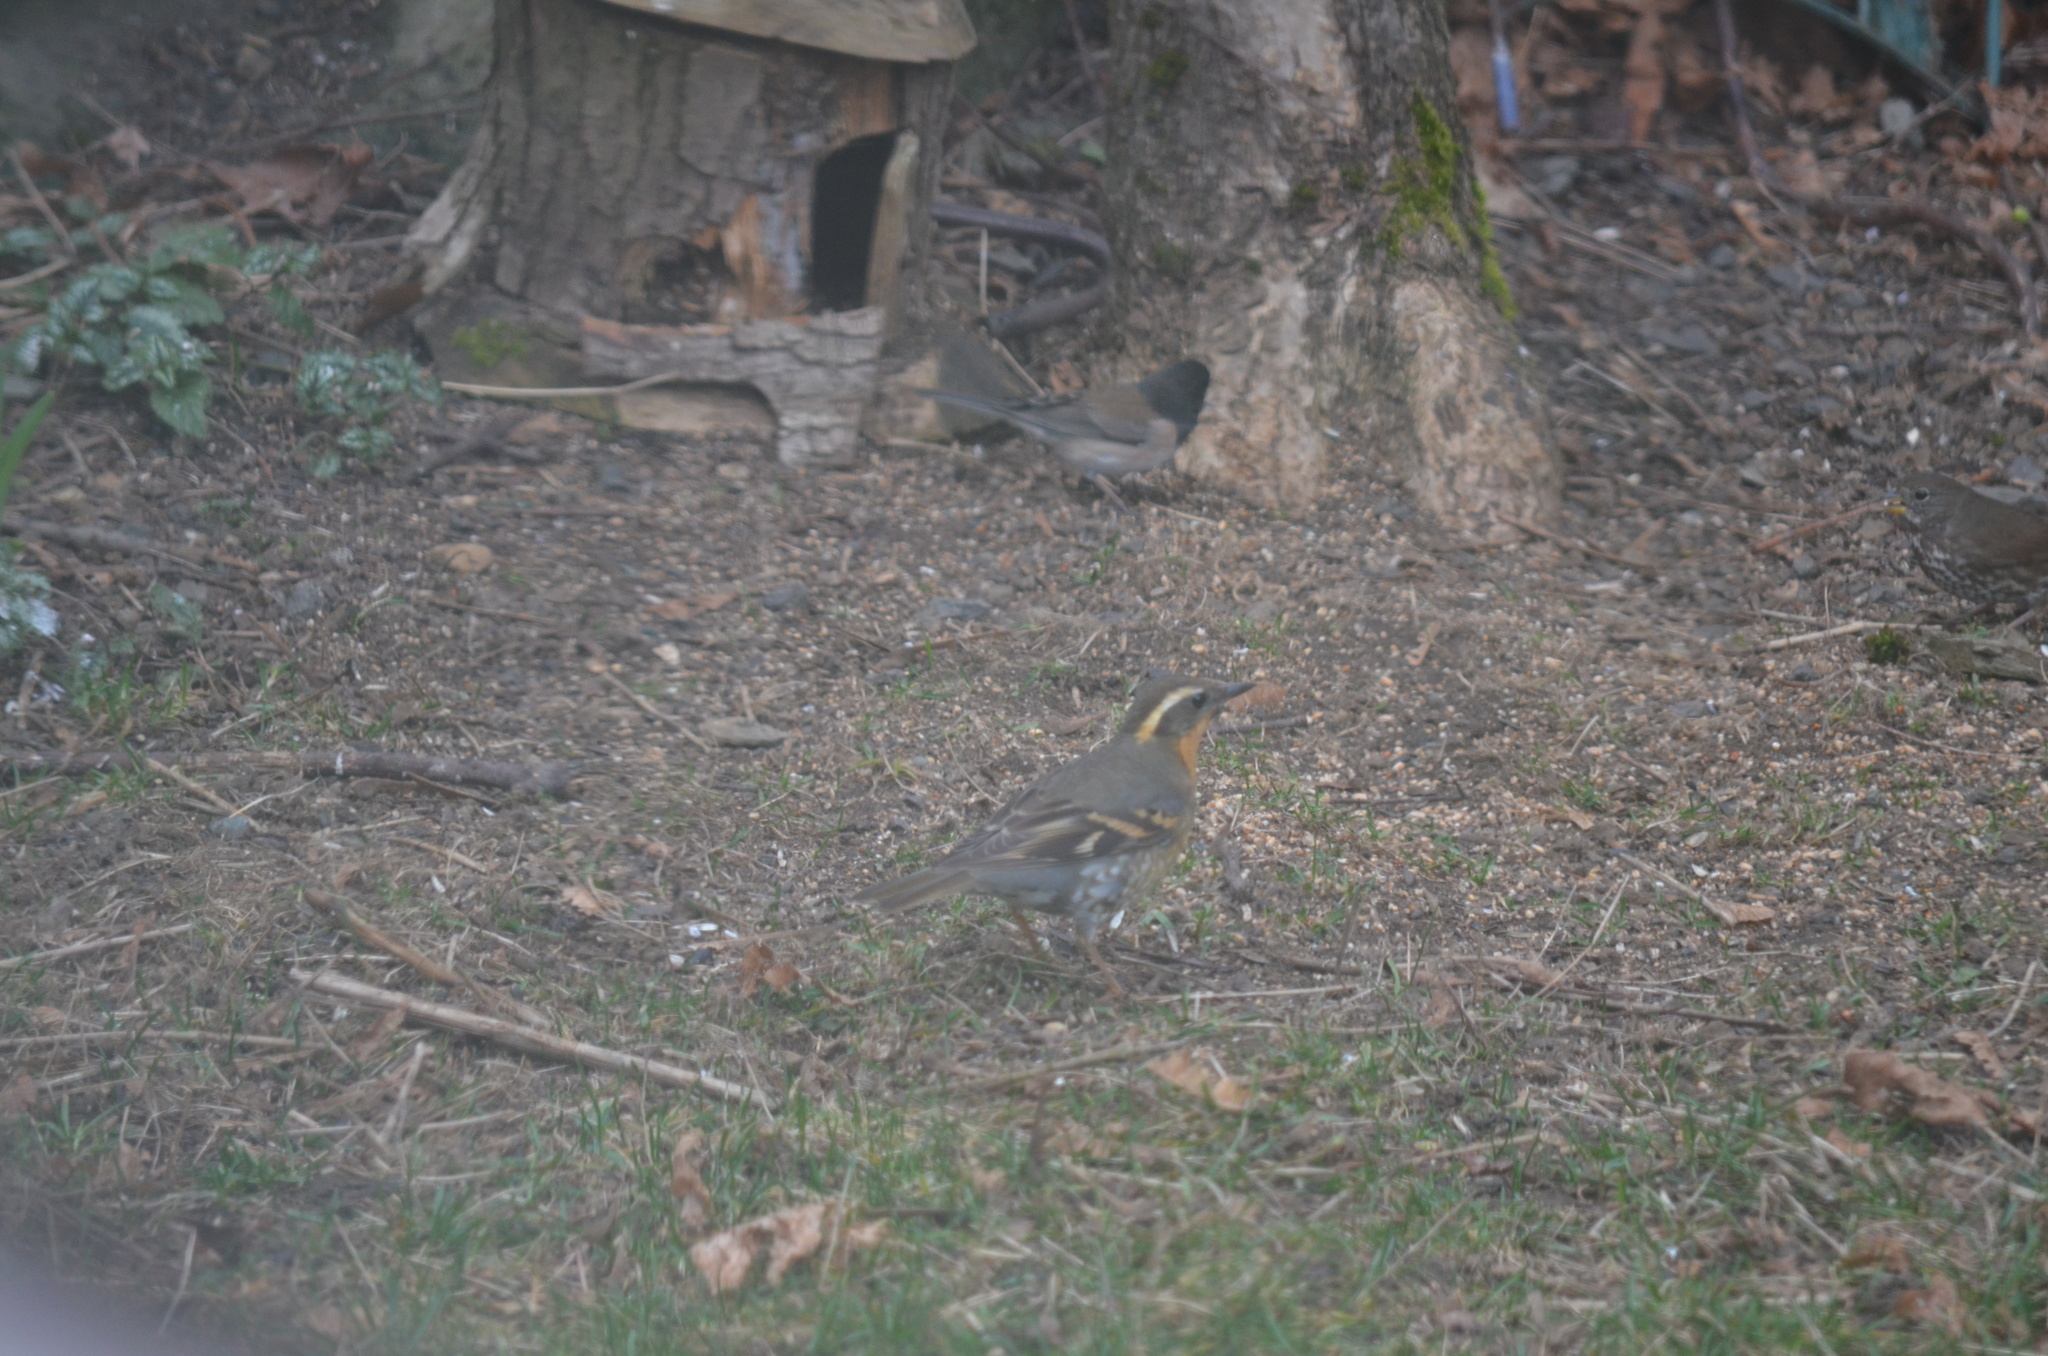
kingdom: Animalia
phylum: Chordata
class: Aves
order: Passeriformes
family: Turdidae
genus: Ixoreus
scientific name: Ixoreus naevius
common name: Varied thrush
